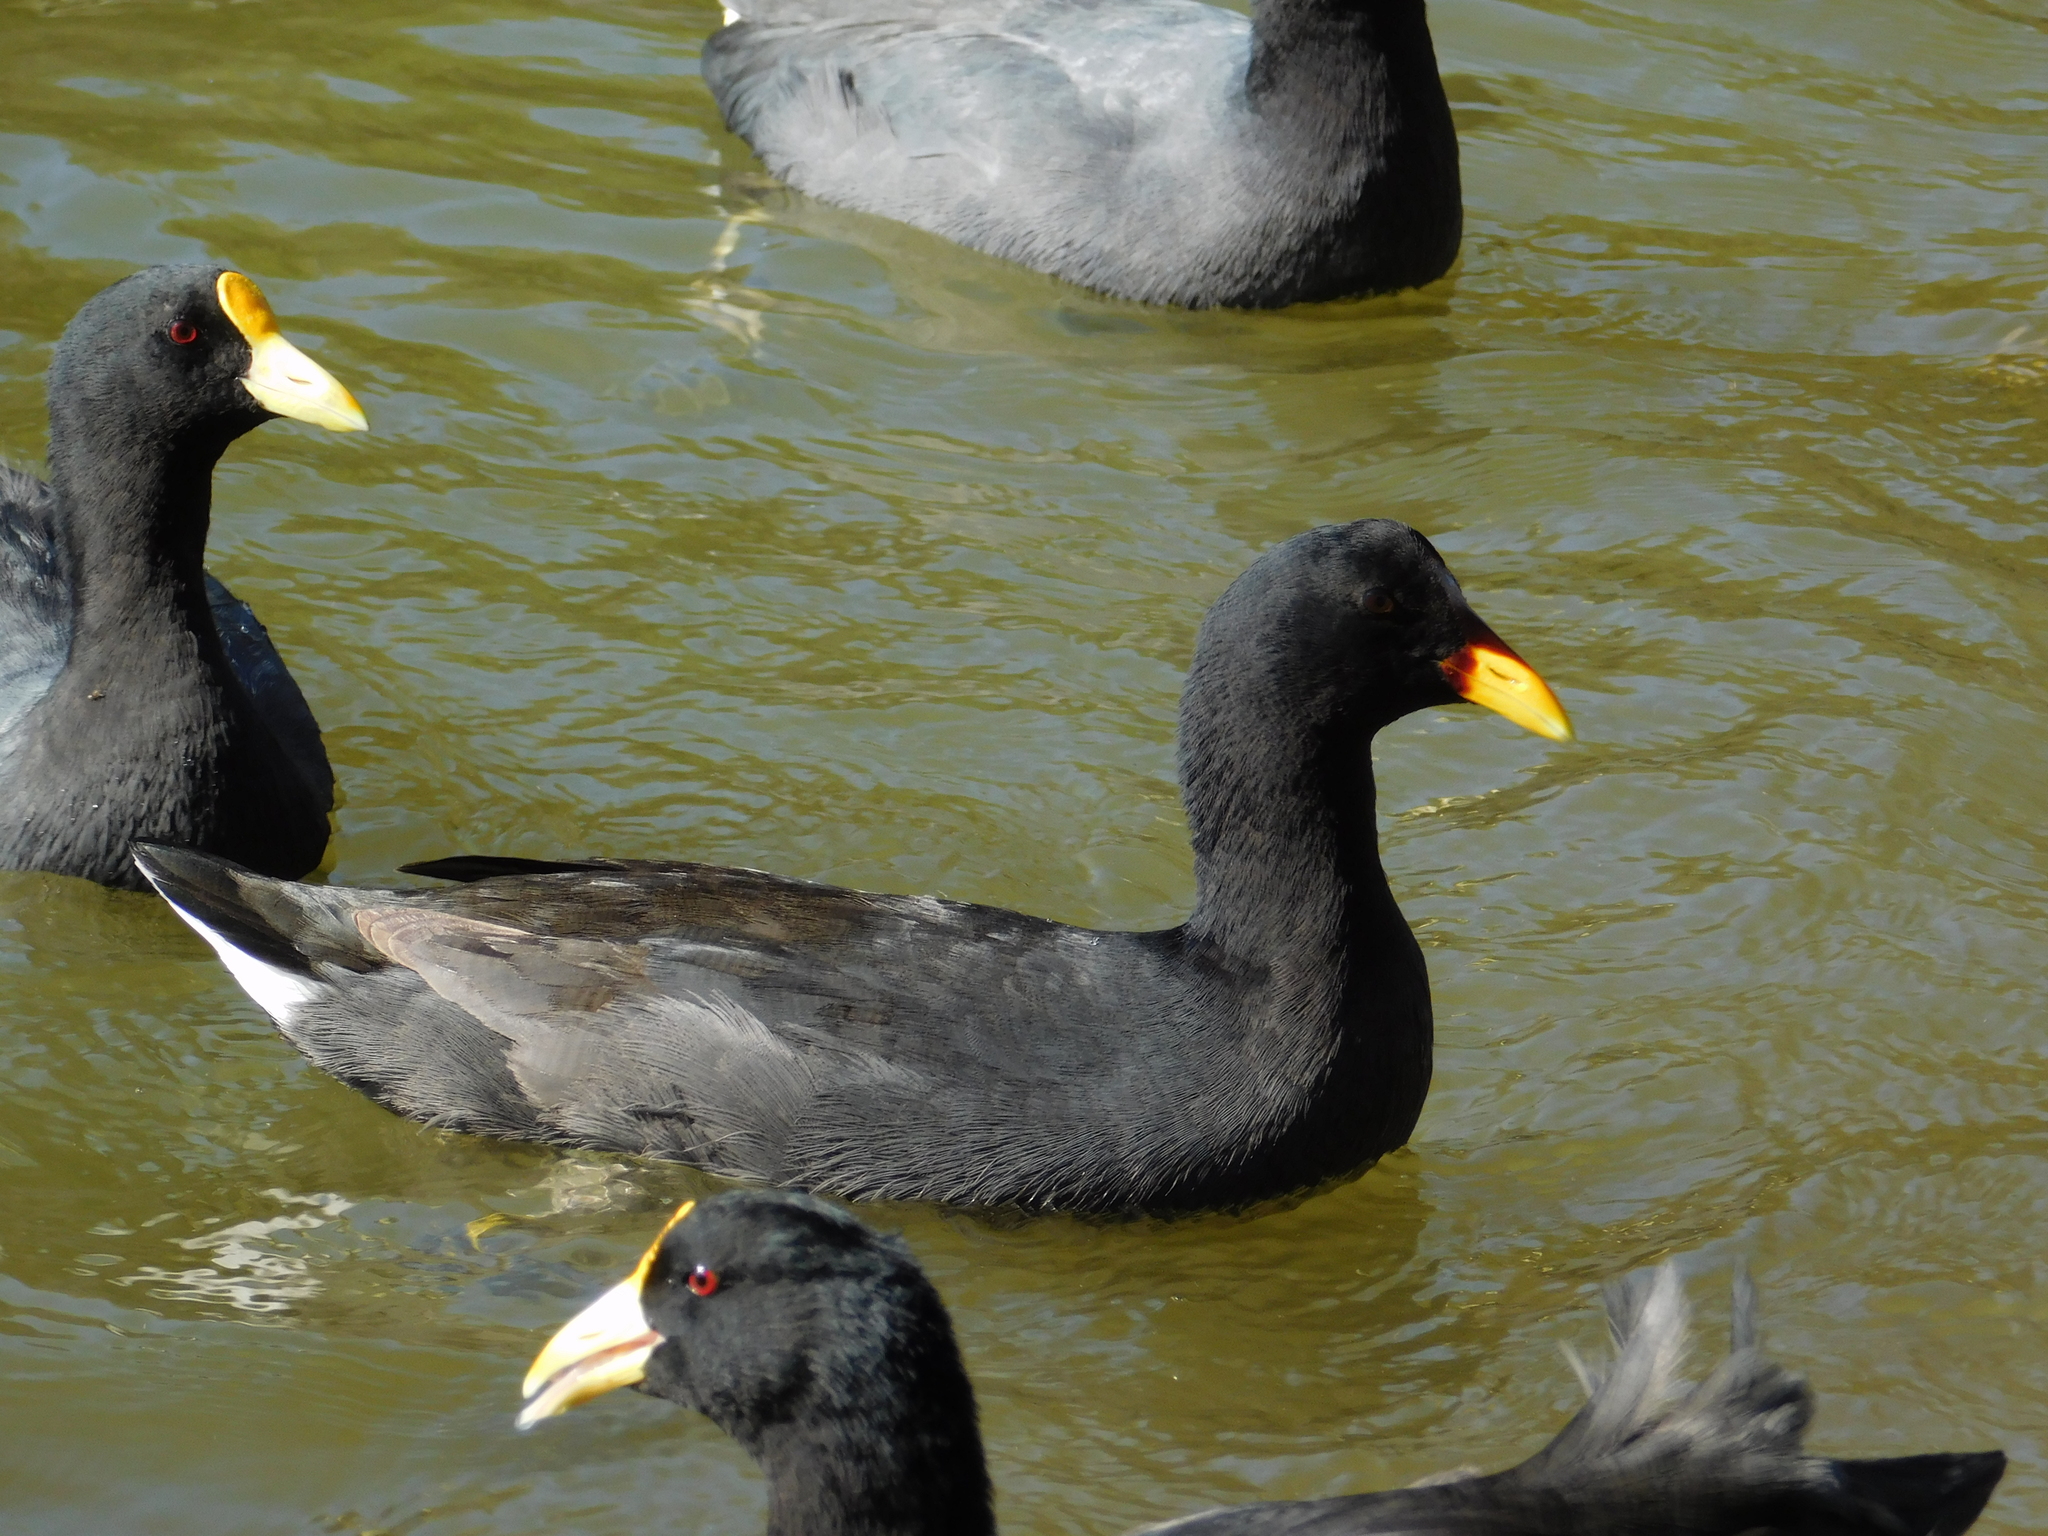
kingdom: Animalia
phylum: Chordata
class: Aves
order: Gruiformes
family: Rallidae
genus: Fulica
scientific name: Fulica leucoptera
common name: White-winged coot
